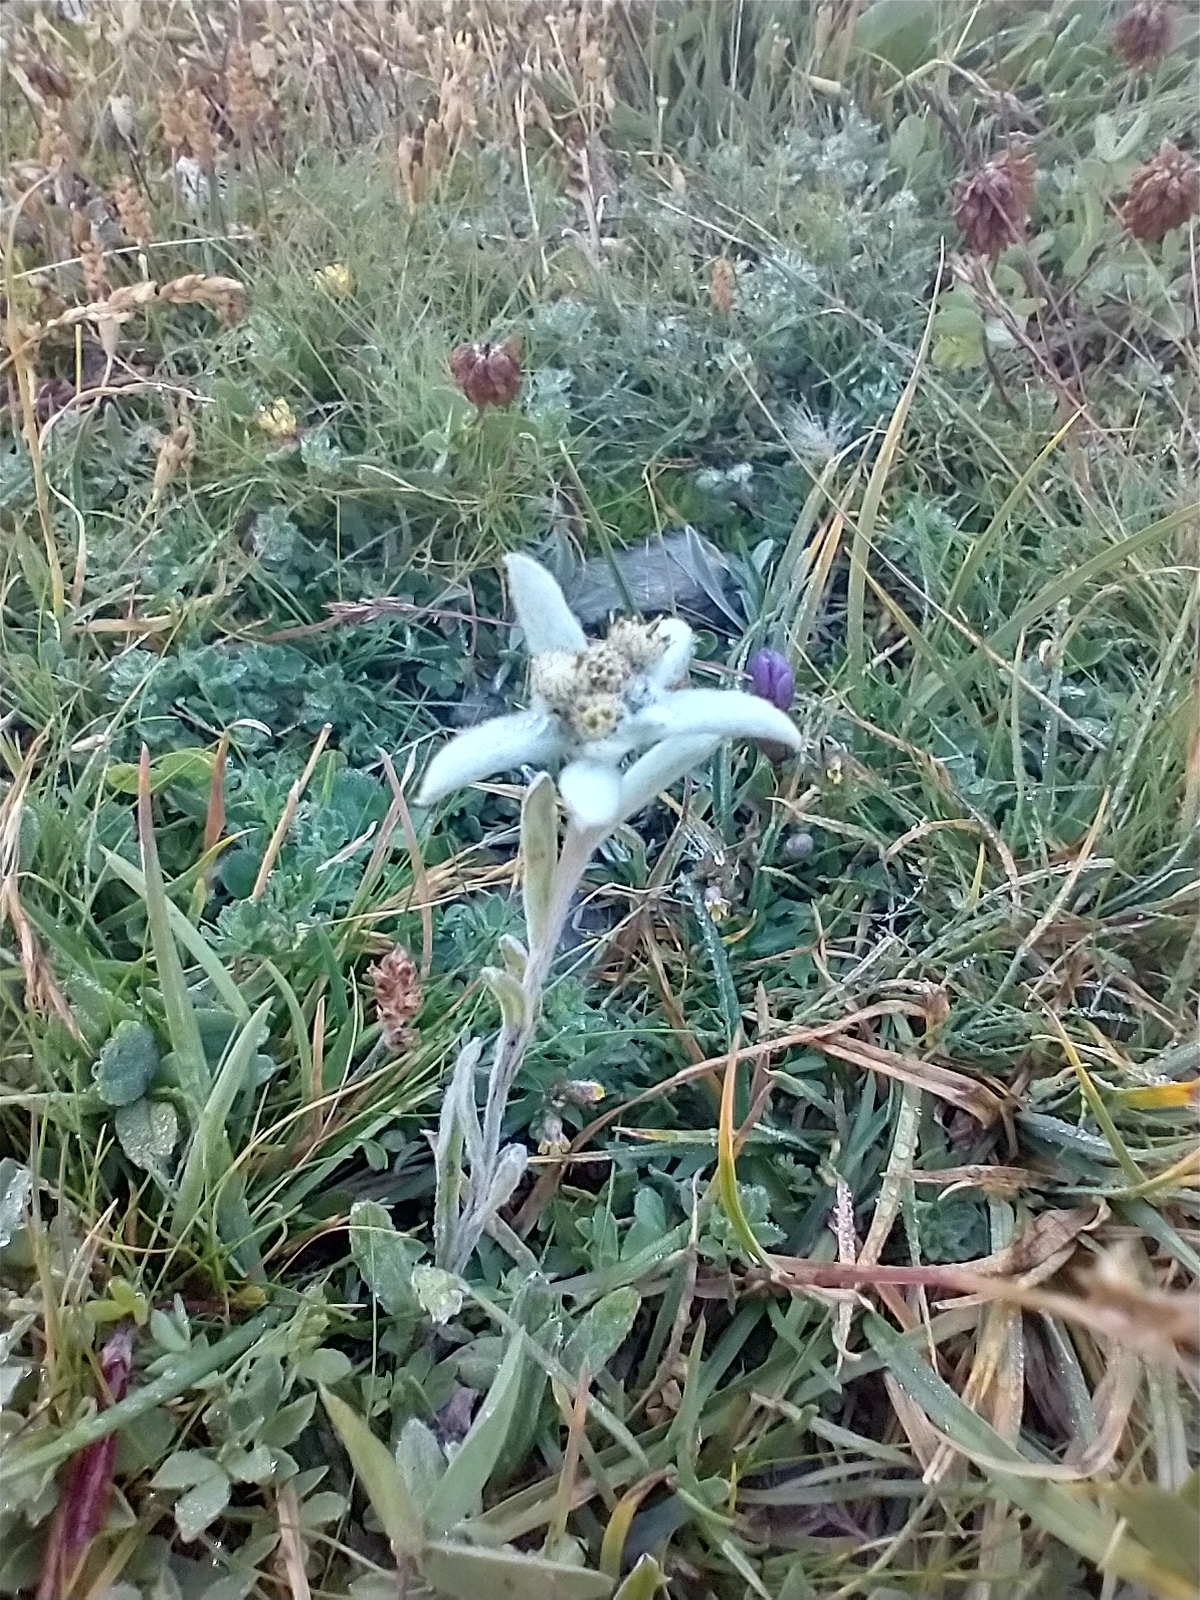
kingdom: Plantae
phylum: Tracheophyta
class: Magnoliopsida
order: Asterales
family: Asteraceae
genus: Leontopodium
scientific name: Leontopodium nivale
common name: Edelweiss
